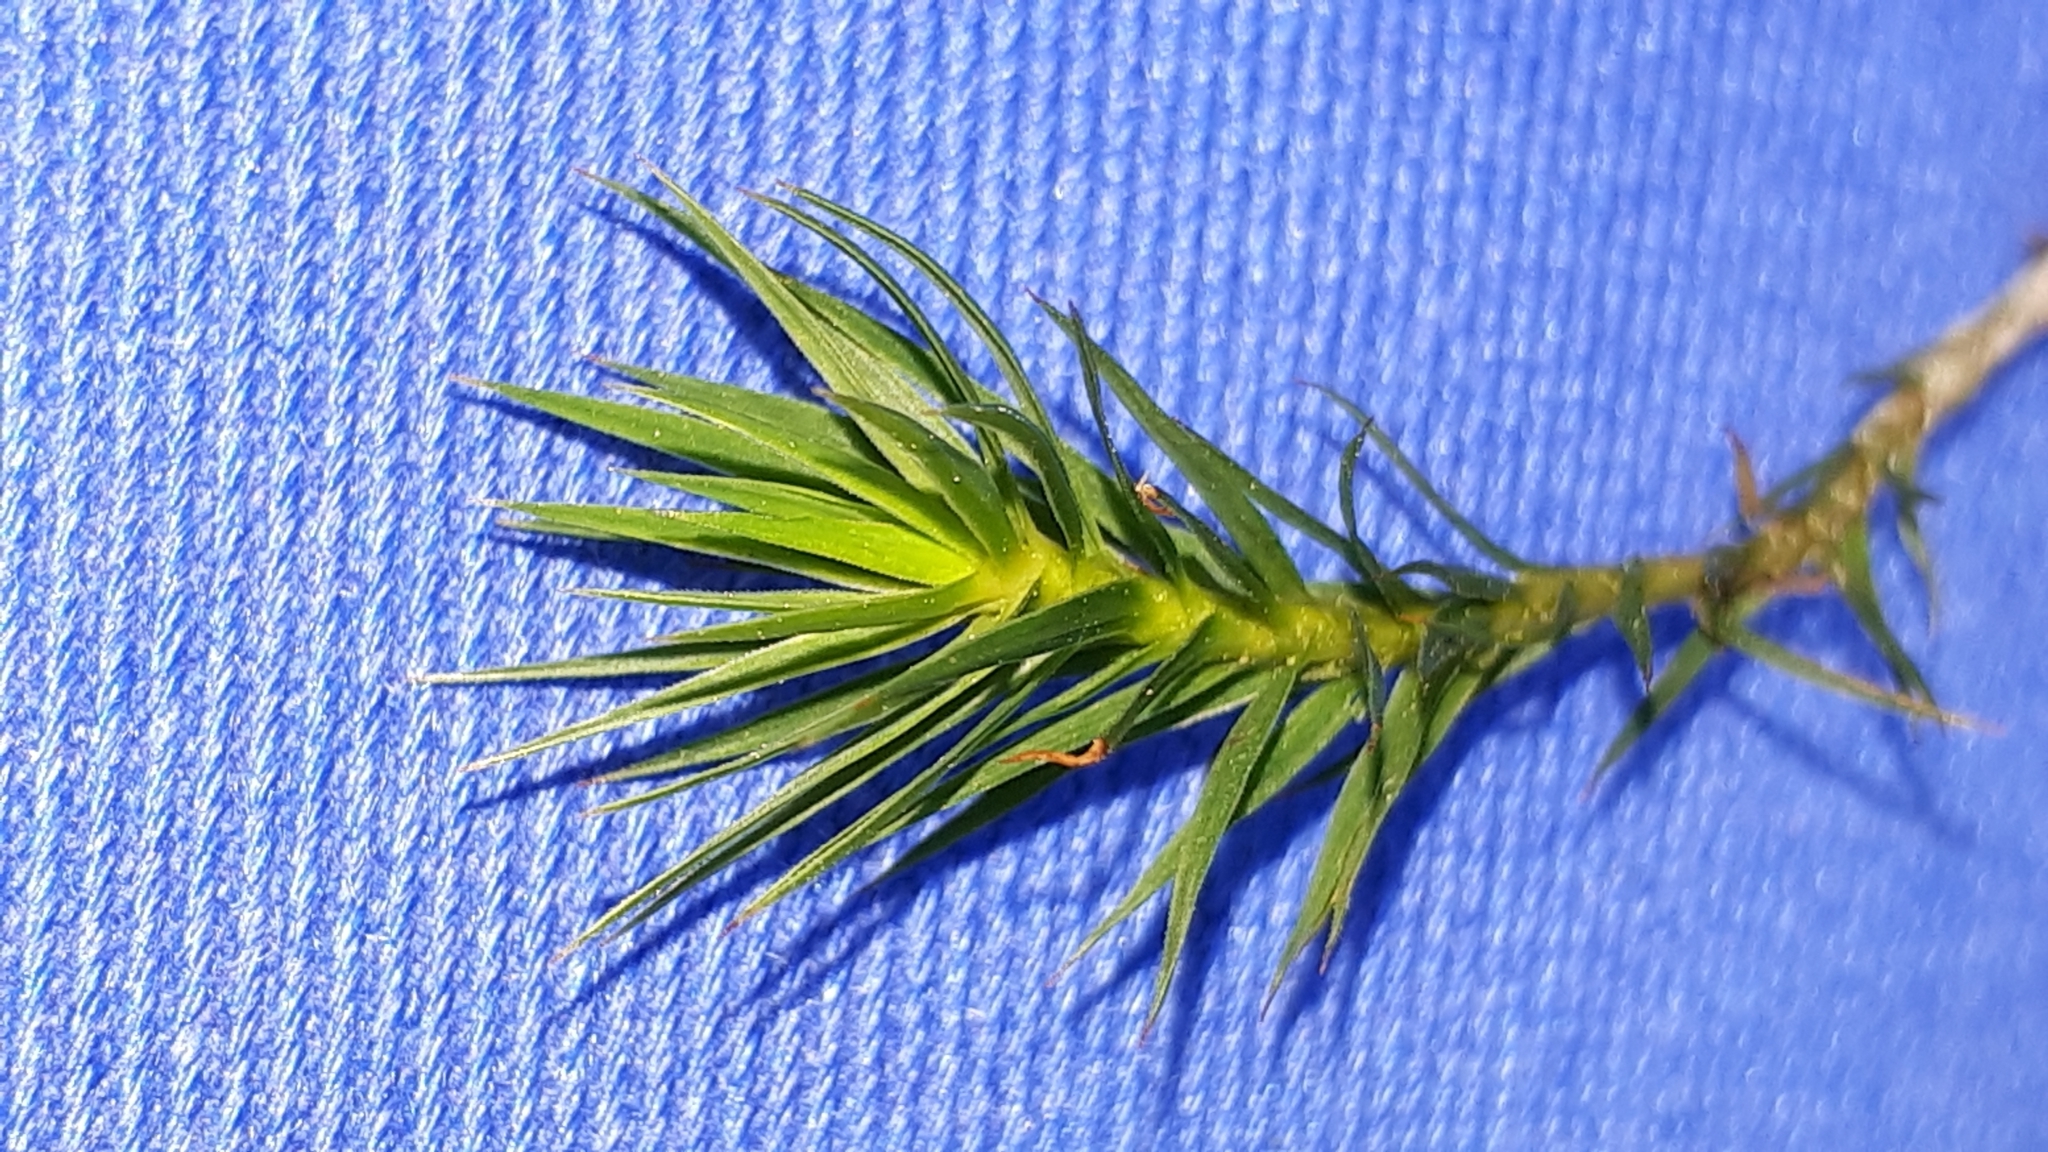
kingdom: Plantae
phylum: Bryophyta
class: Polytrichopsida
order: Polytrichales
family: Polytrichaceae
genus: Polytrichum
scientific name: Polytrichum formosum
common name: Bank haircap moss
